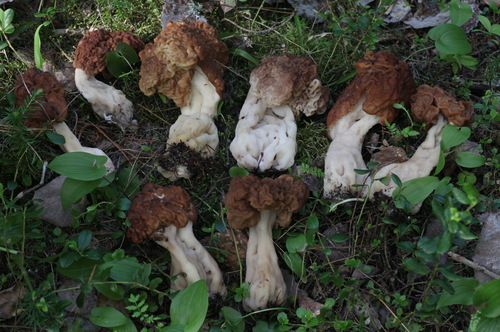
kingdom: Fungi
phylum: Ascomycota
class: Pezizomycetes
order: Pezizales
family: Discinaceae
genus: Gyromitra
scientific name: Gyromitra
